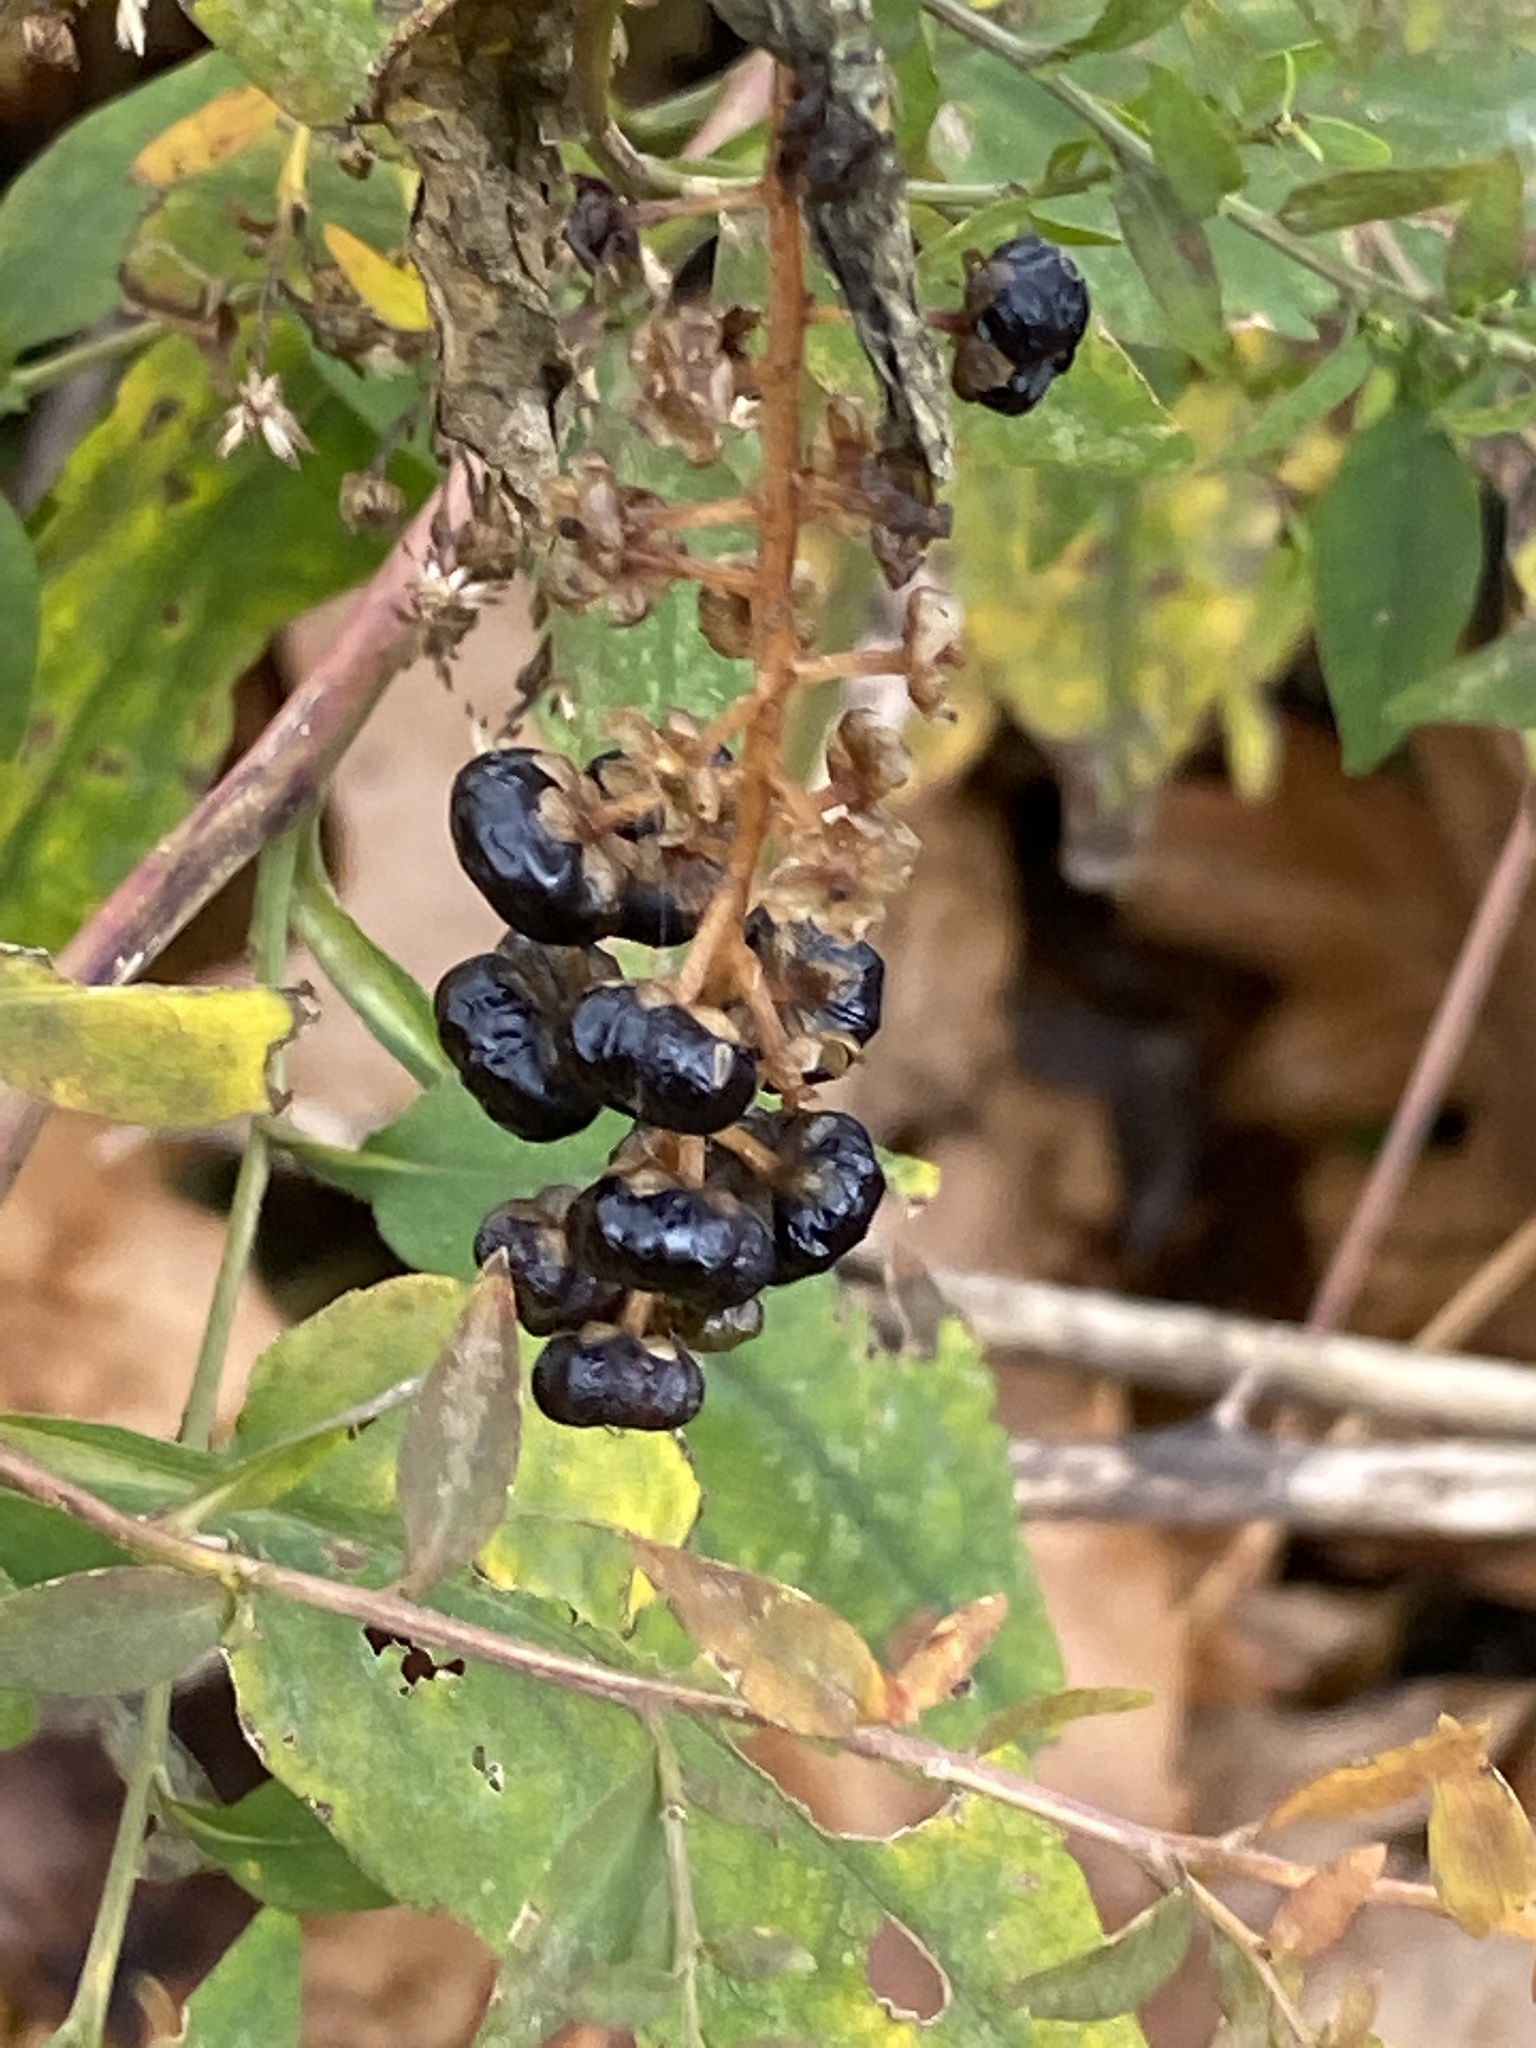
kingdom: Plantae
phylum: Tracheophyta
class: Magnoliopsida
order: Caryophyllales
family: Phytolaccaceae
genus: Phytolacca
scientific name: Phytolacca americana
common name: American pokeweed
